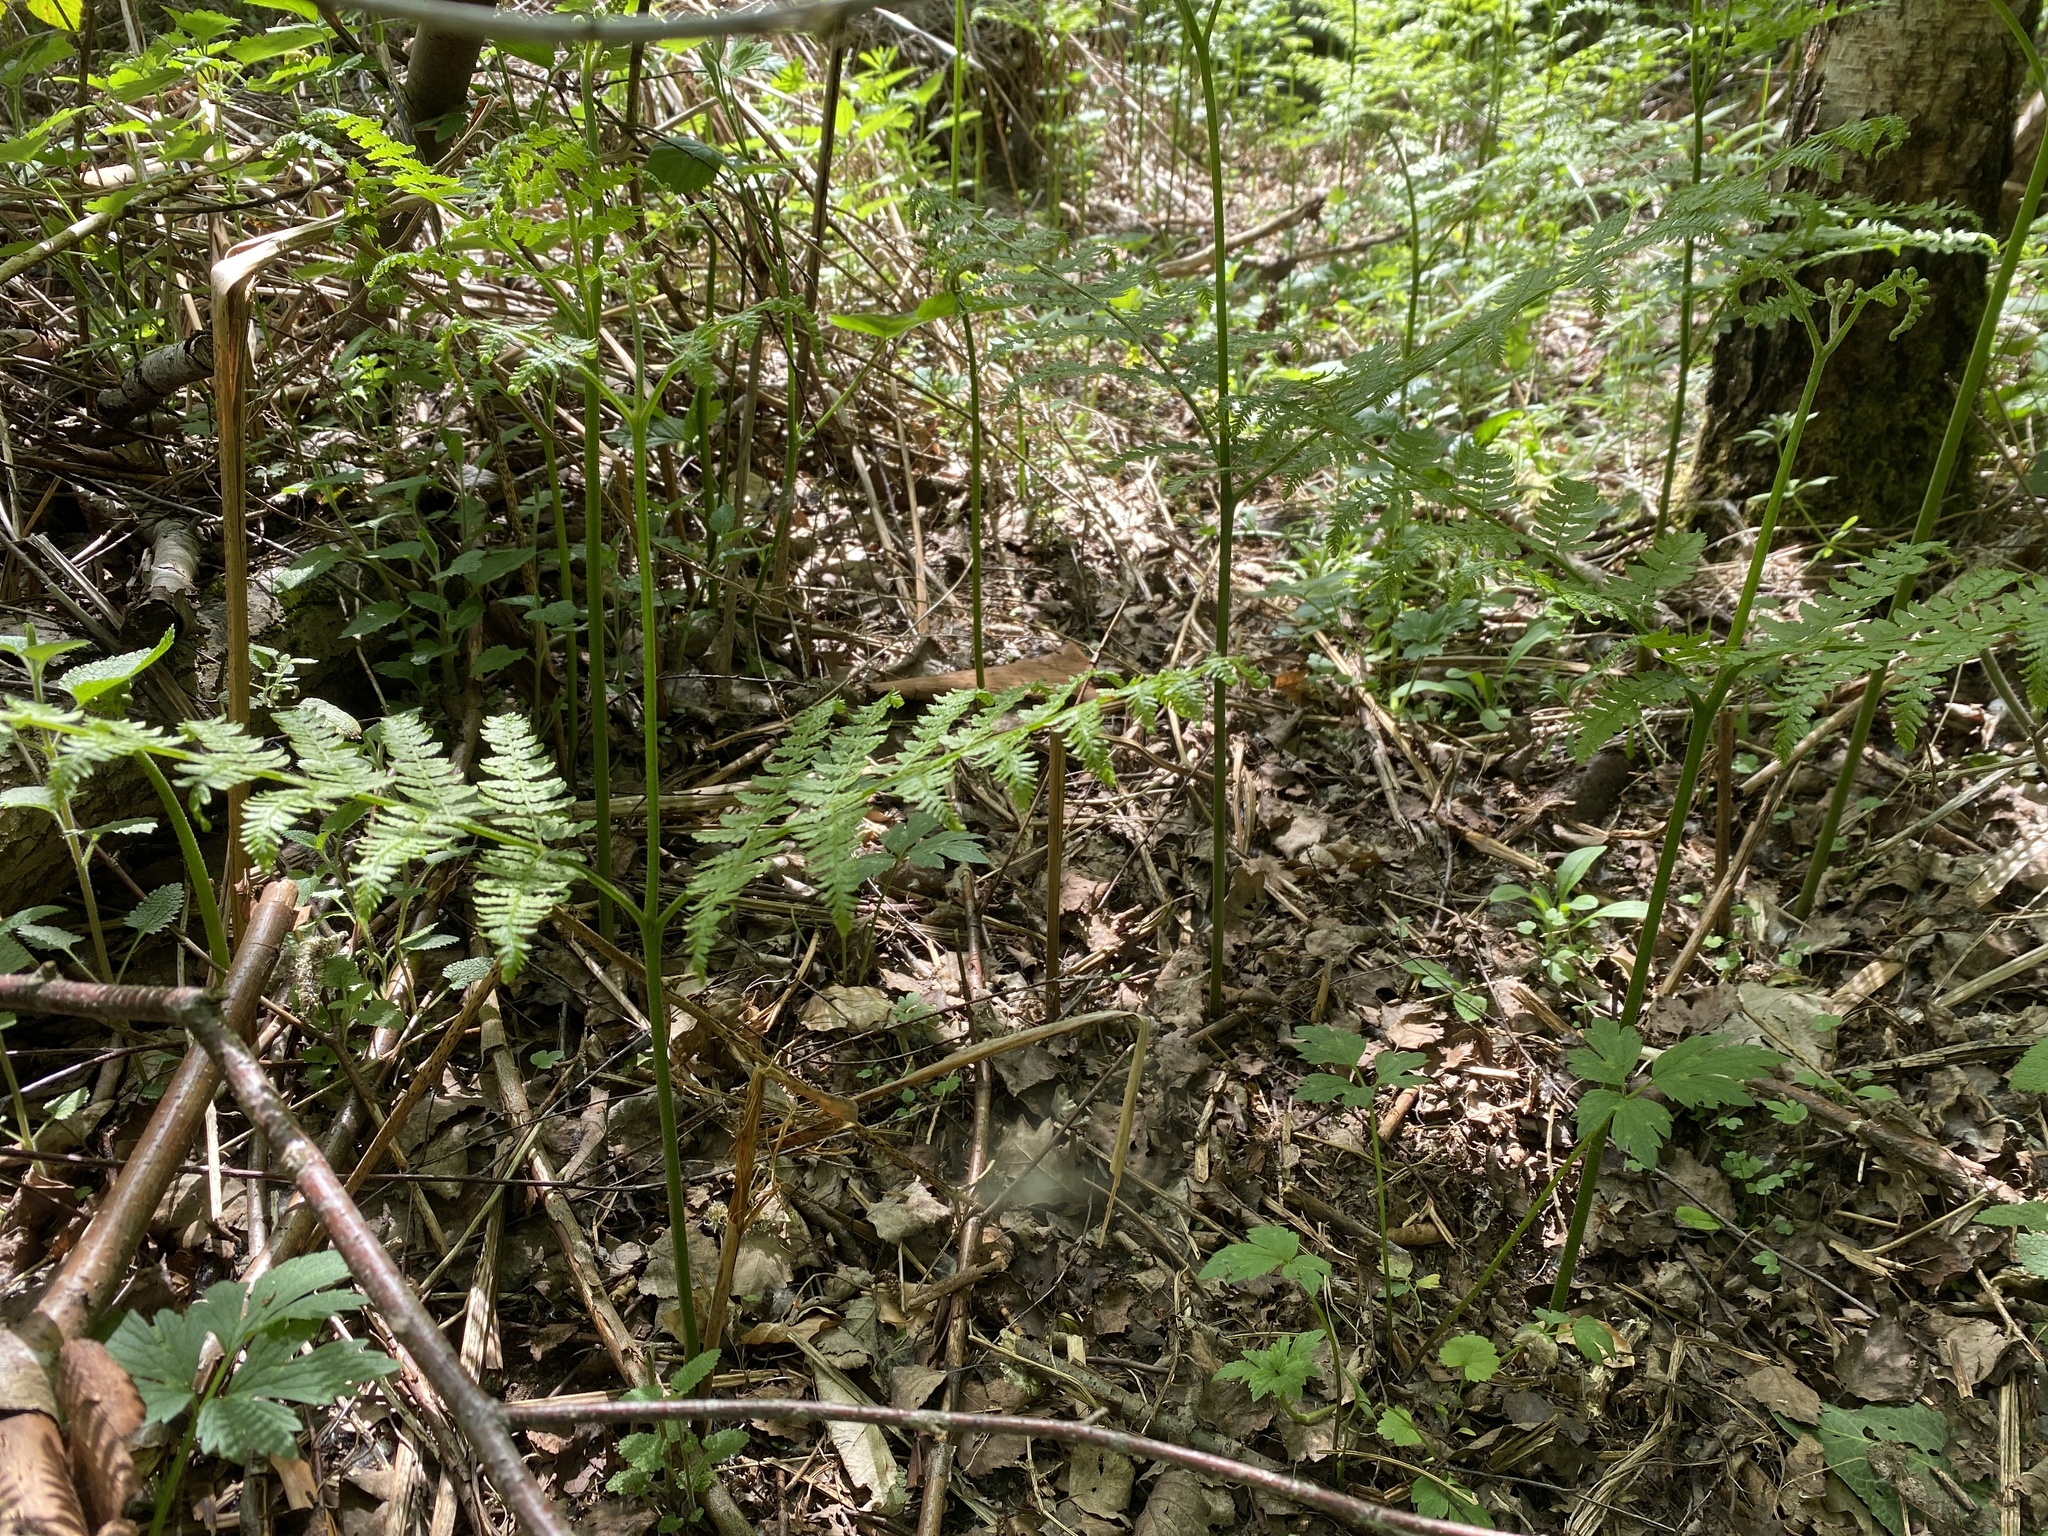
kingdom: Plantae
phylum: Tracheophyta
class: Polypodiopsida
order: Polypodiales
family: Dennstaedtiaceae
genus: Pteridium
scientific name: Pteridium aquilinum
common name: Bracken
